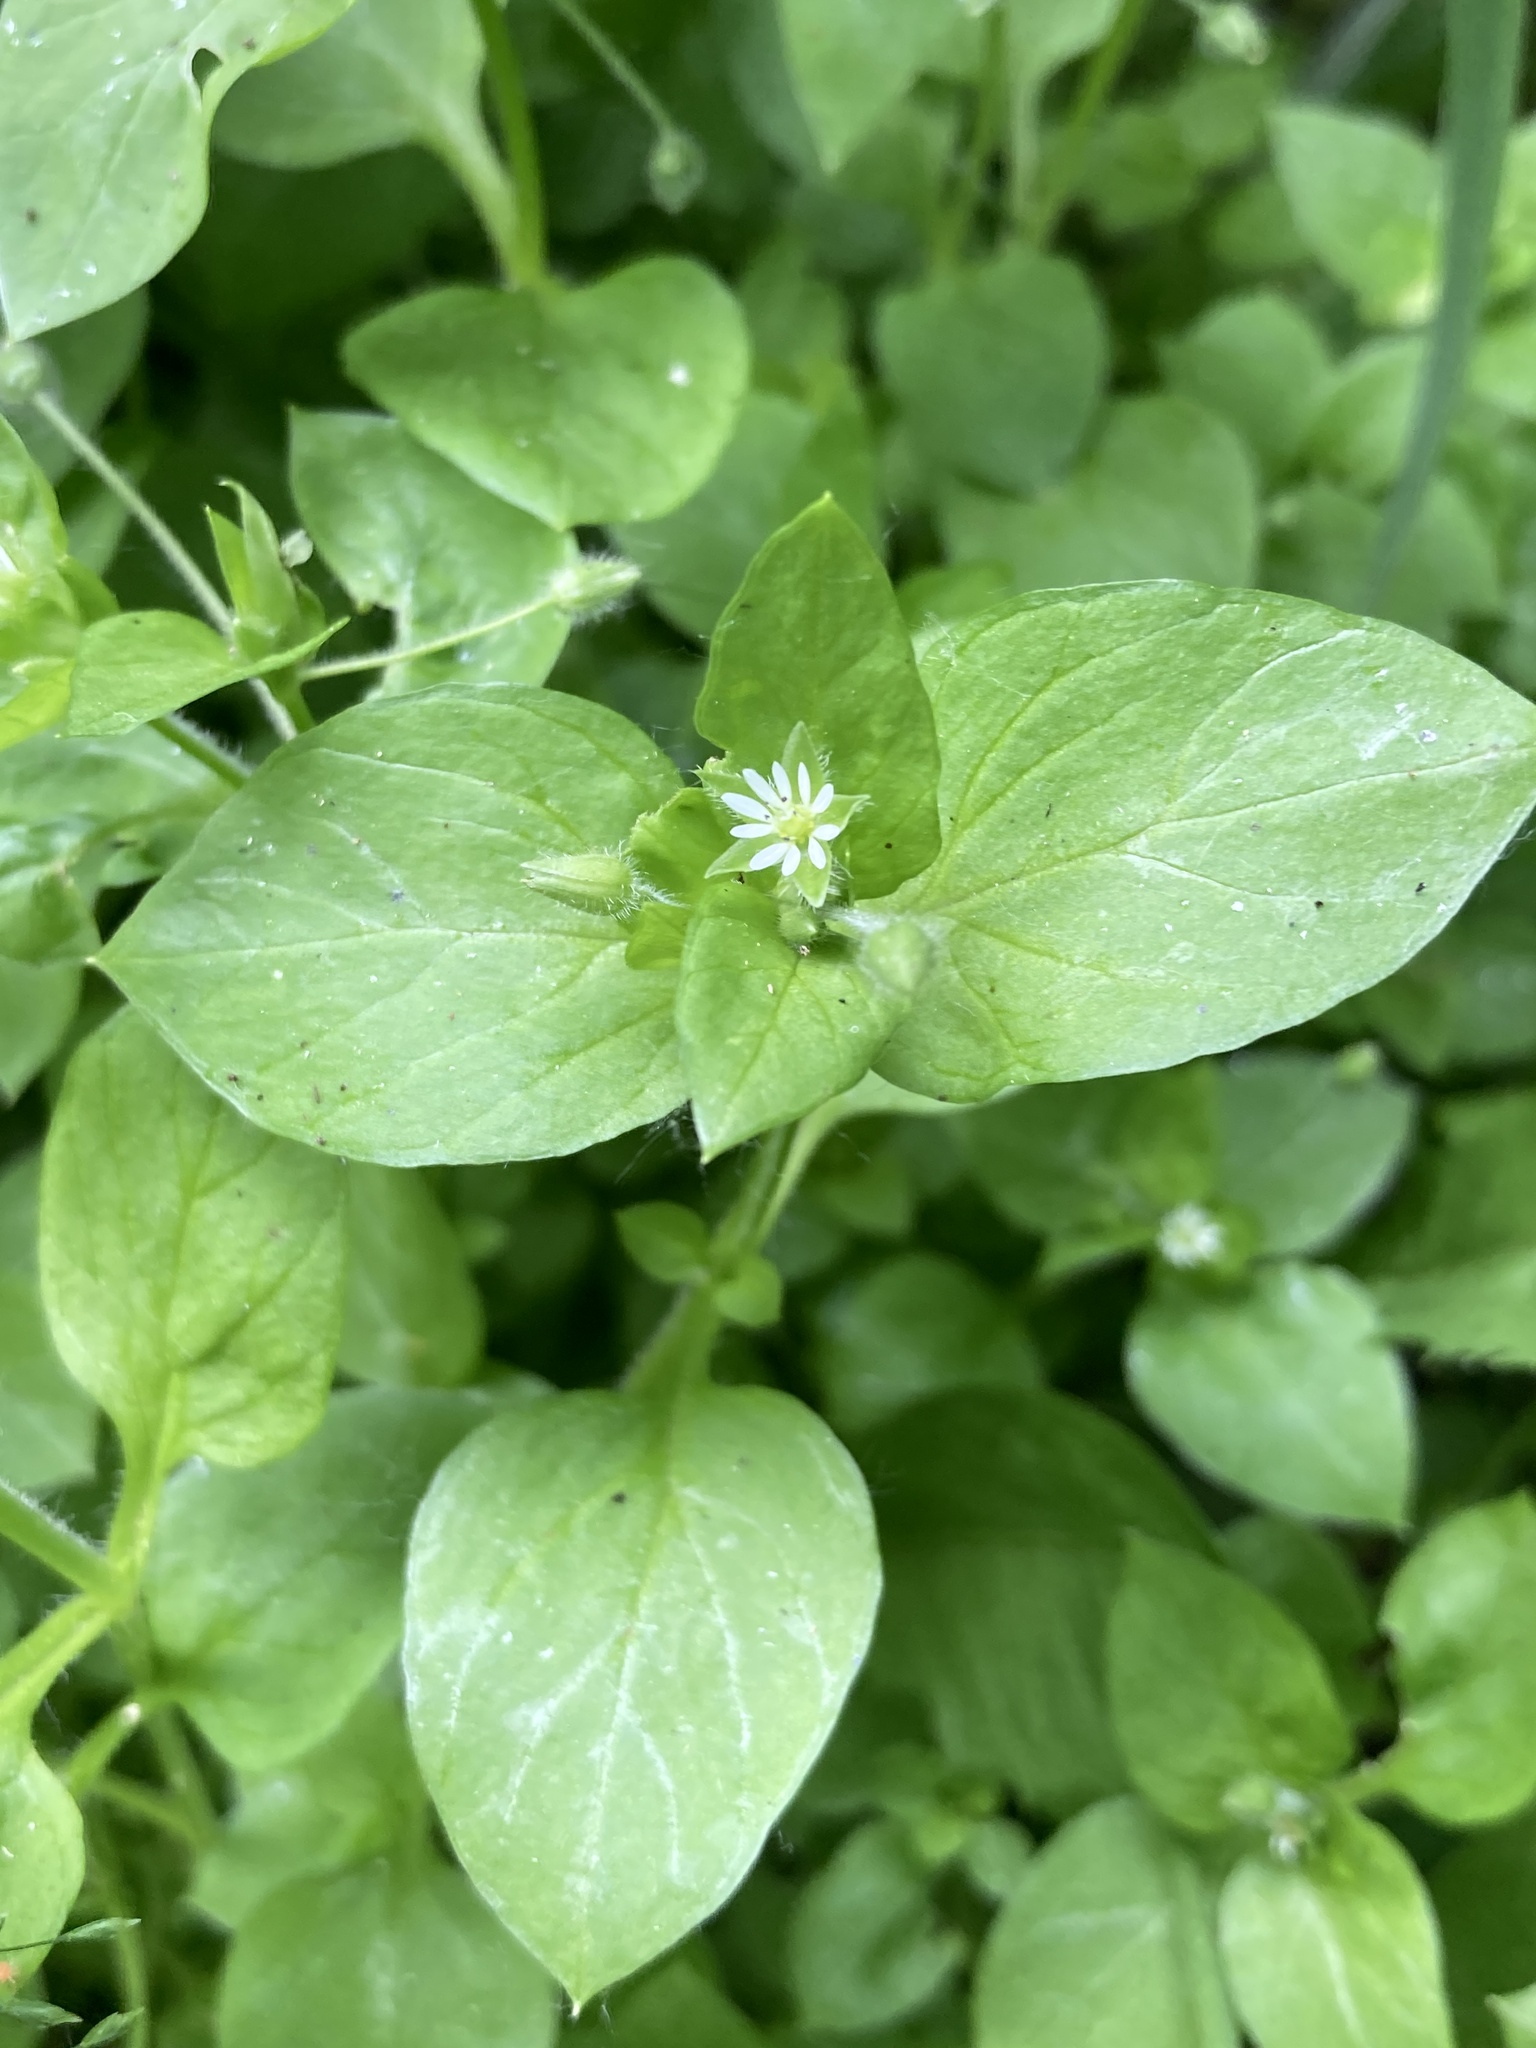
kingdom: Plantae
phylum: Tracheophyta
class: Magnoliopsida
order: Caryophyllales
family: Caryophyllaceae
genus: Stellaria
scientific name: Stellaria media
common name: Common chickweed
